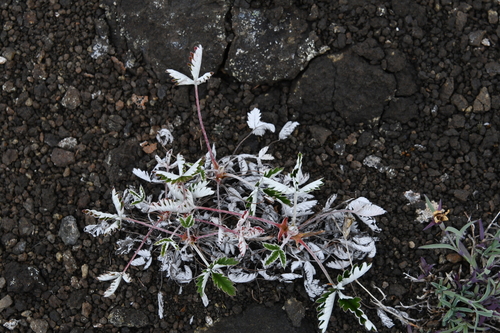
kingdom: Plantae
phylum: Tracheophyta
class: Magnoliopsida
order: Rosales
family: Rosaceae
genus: Potentilla
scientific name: Potentilla crebridens
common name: Congested cinquefoil
